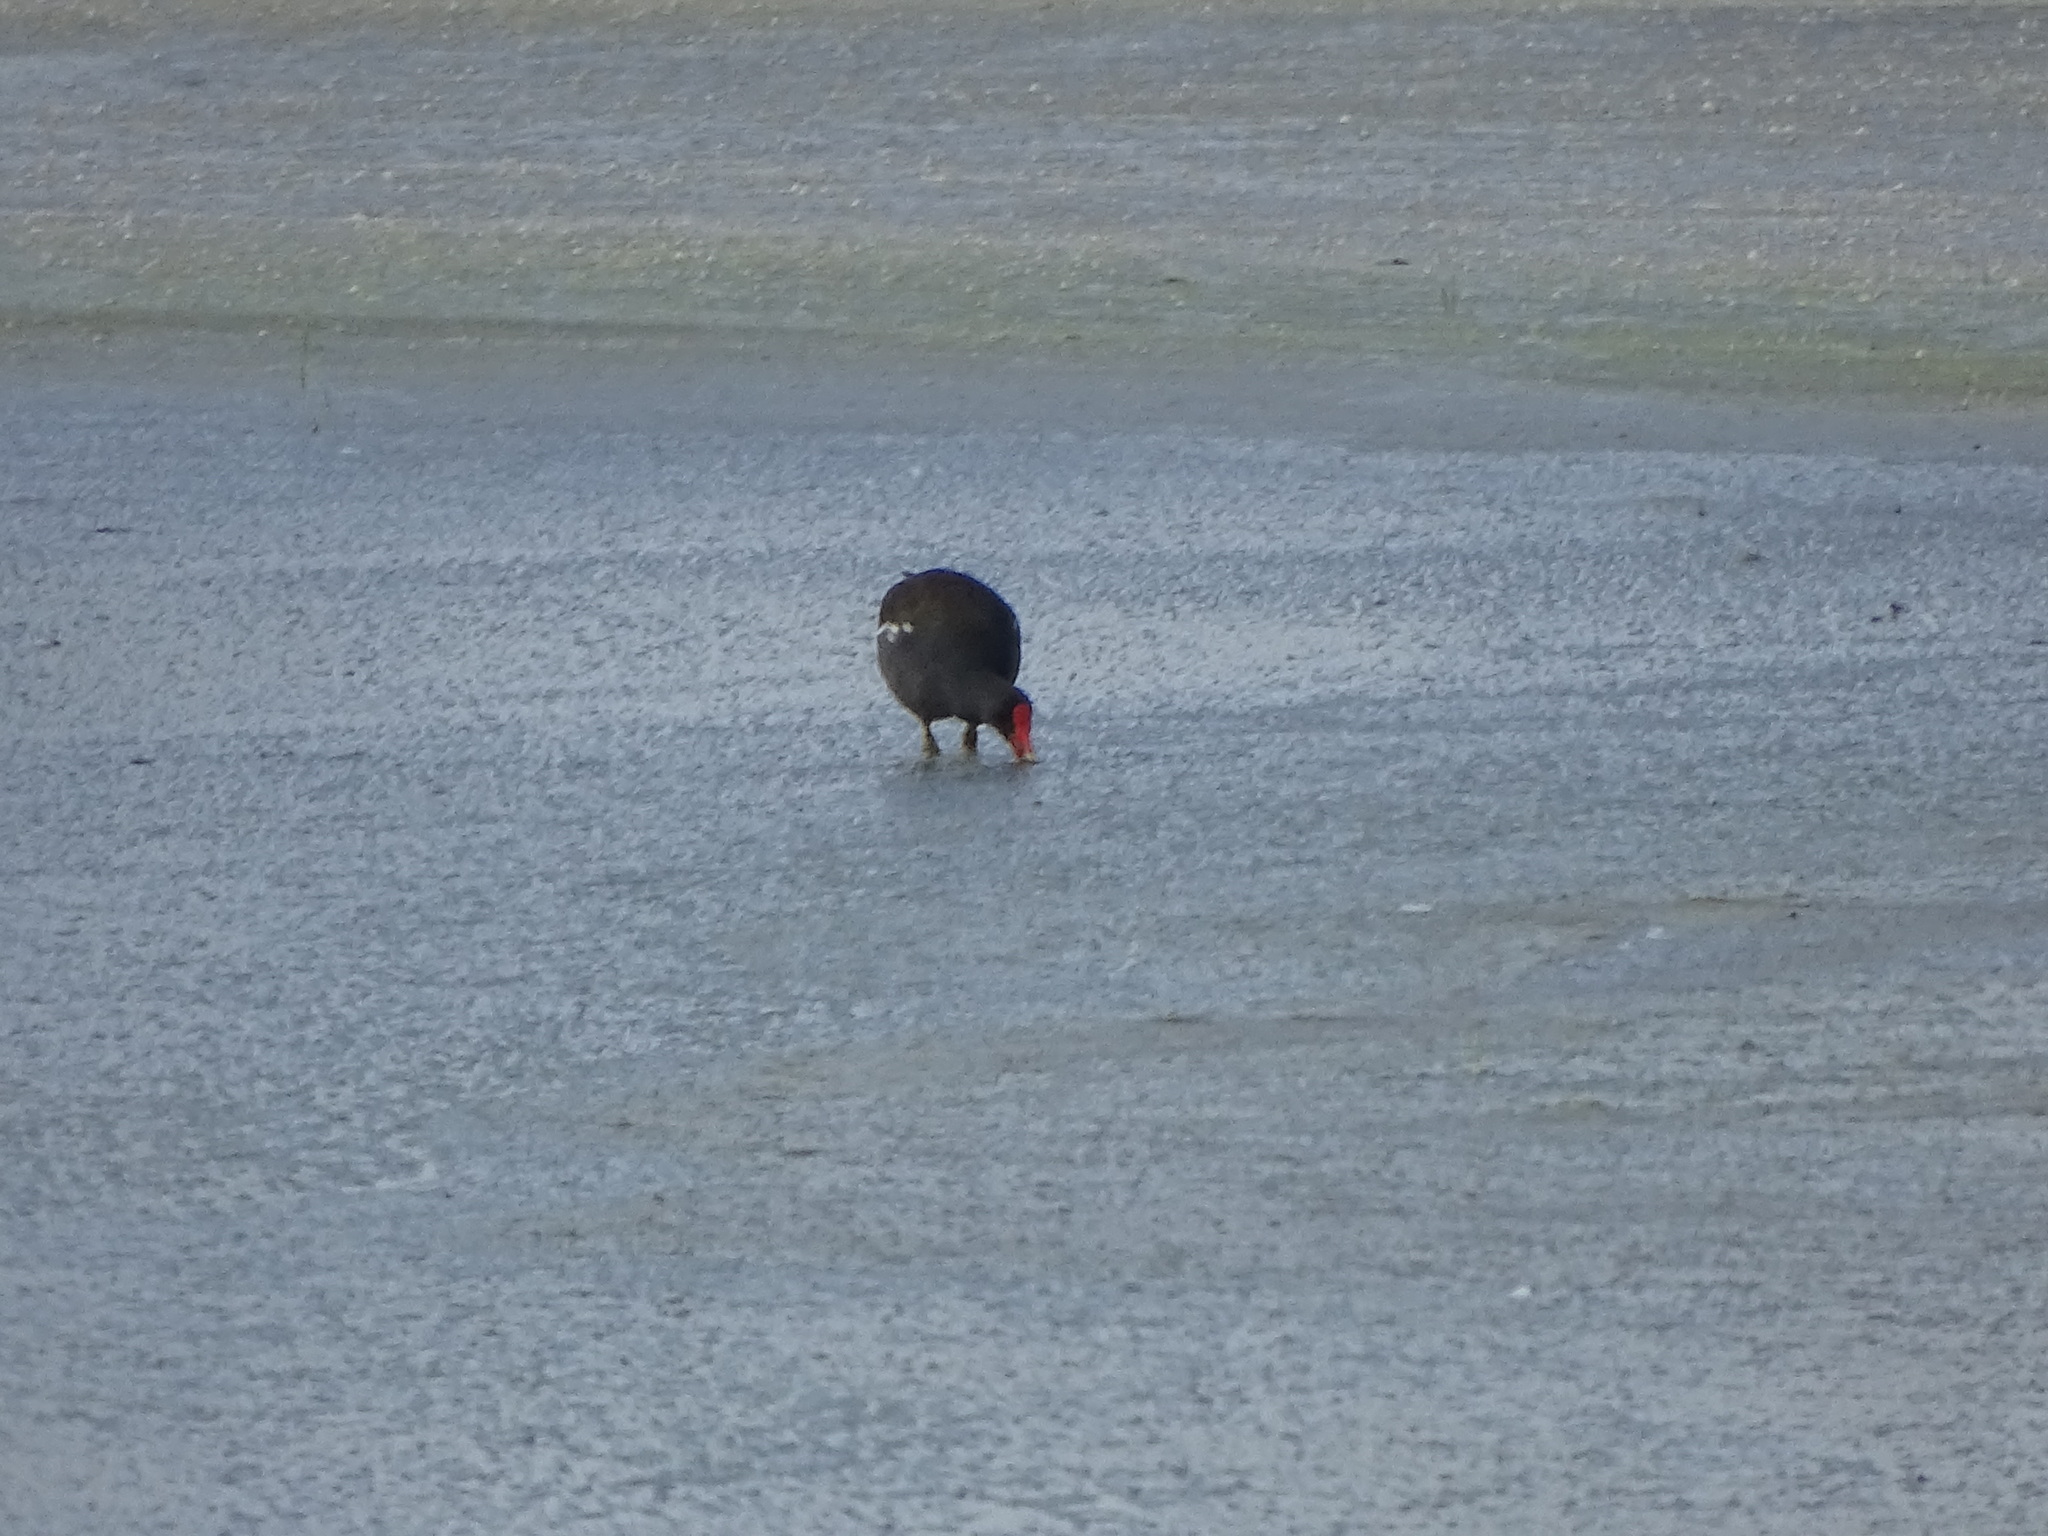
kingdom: Animalia
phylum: Chordata
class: Aves
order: Gruiformes
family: Rallidae
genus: Gallinula
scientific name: Gallinula chloropus
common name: Common moorhen
